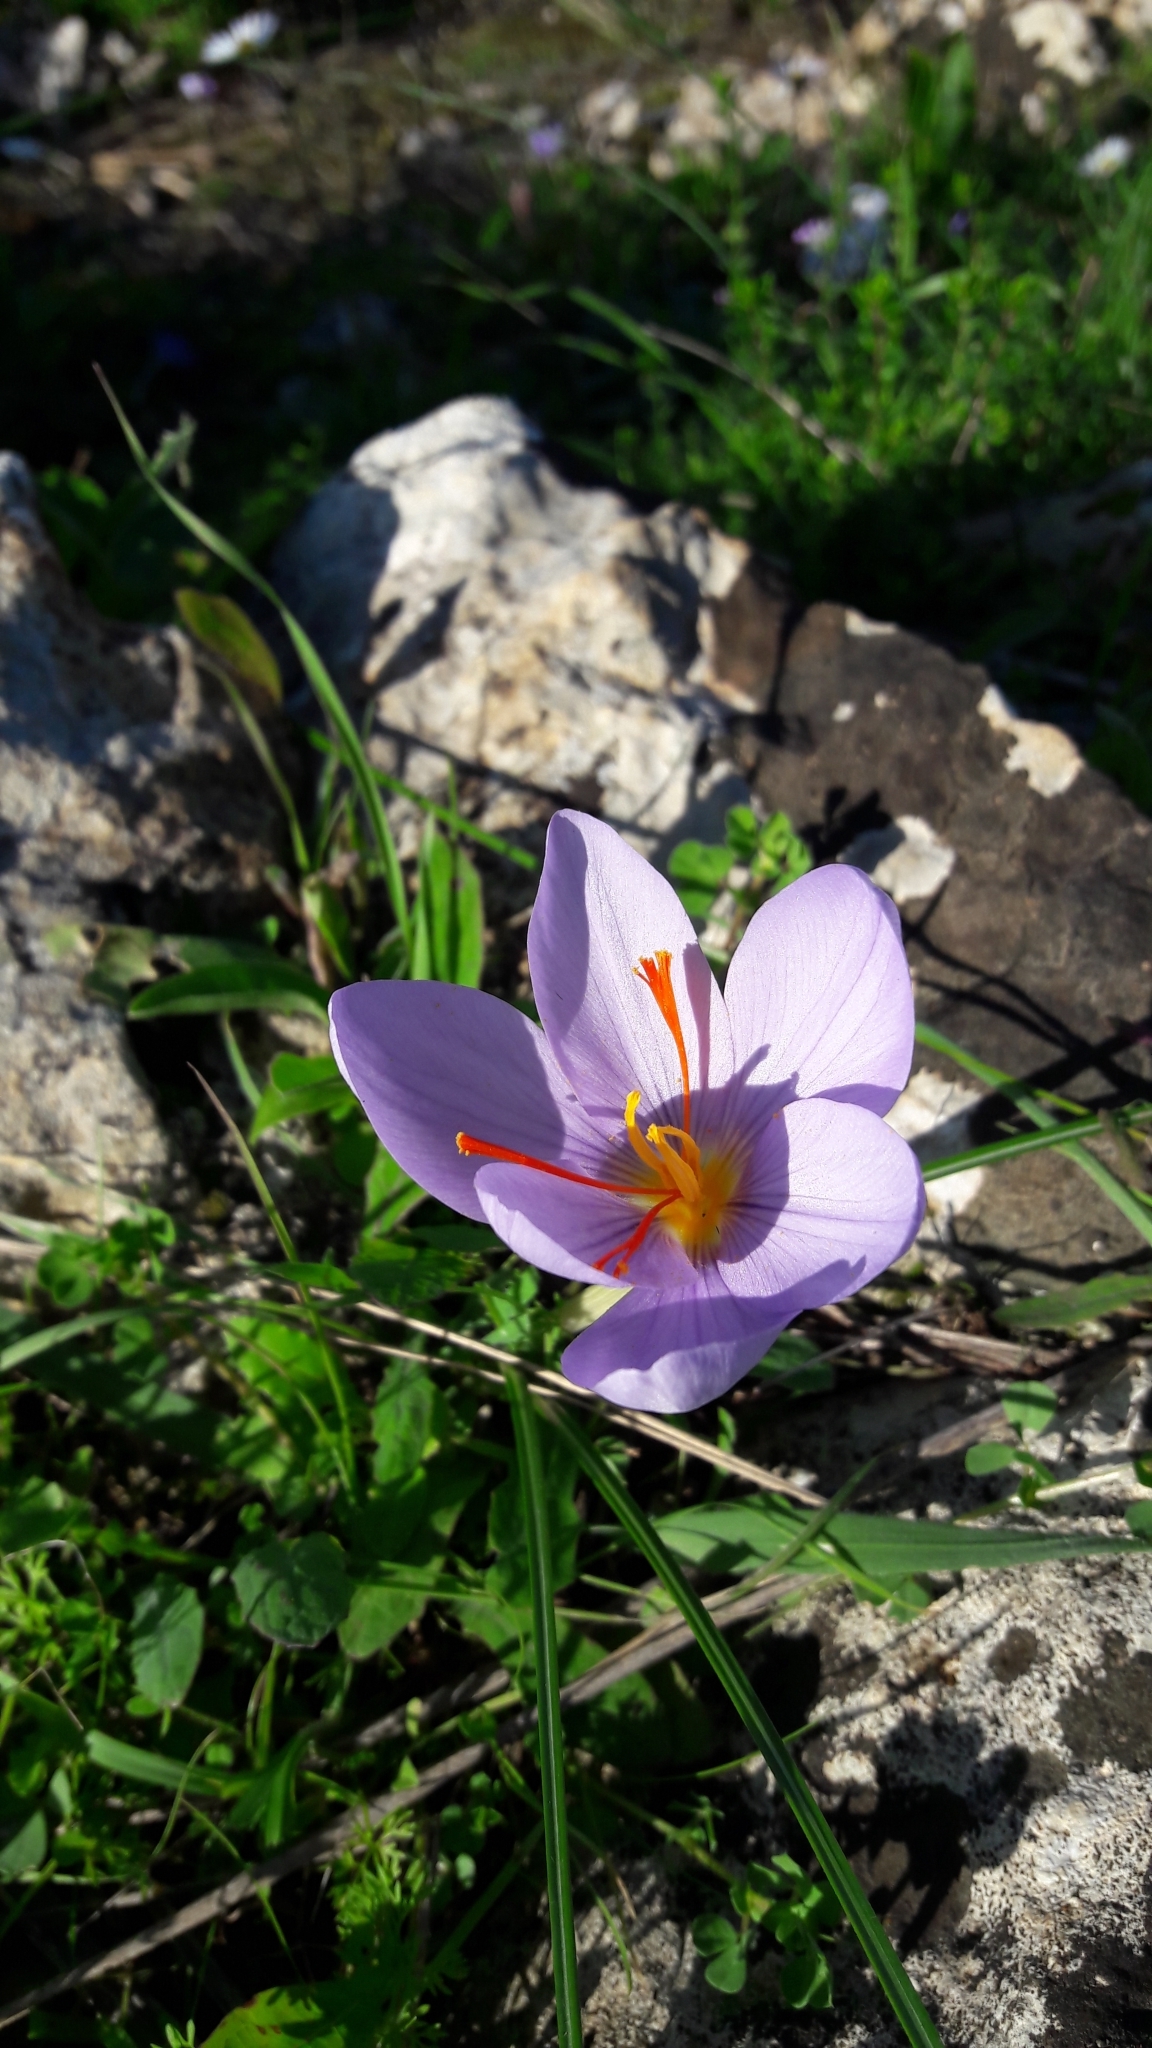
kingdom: Plantae
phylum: Tracheophyta
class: Liliopsida
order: Asparagales
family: Iridaceae
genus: Crocus
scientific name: Crocus longiflorus
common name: Italian crocus
